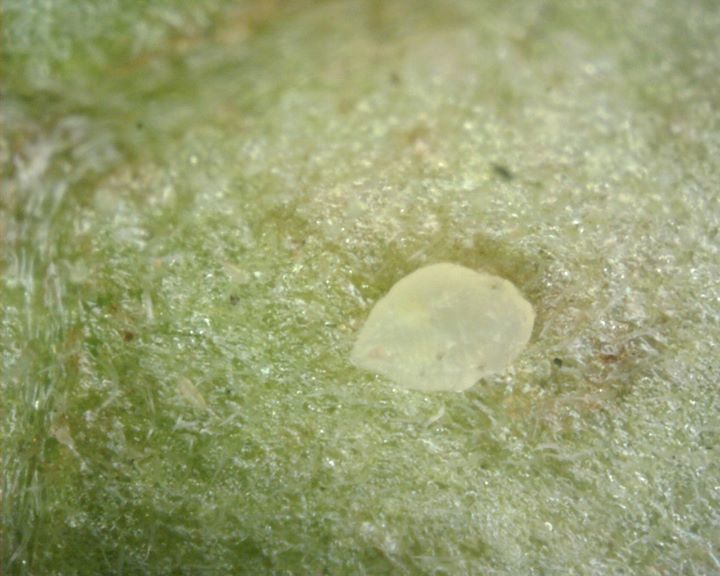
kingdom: Animalia
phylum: Arthropoda
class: Insecta
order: Hemiptera
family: Aleyrodidae
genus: Bemisia
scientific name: Bemisia tabaci
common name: Sweetpotato whitefly
